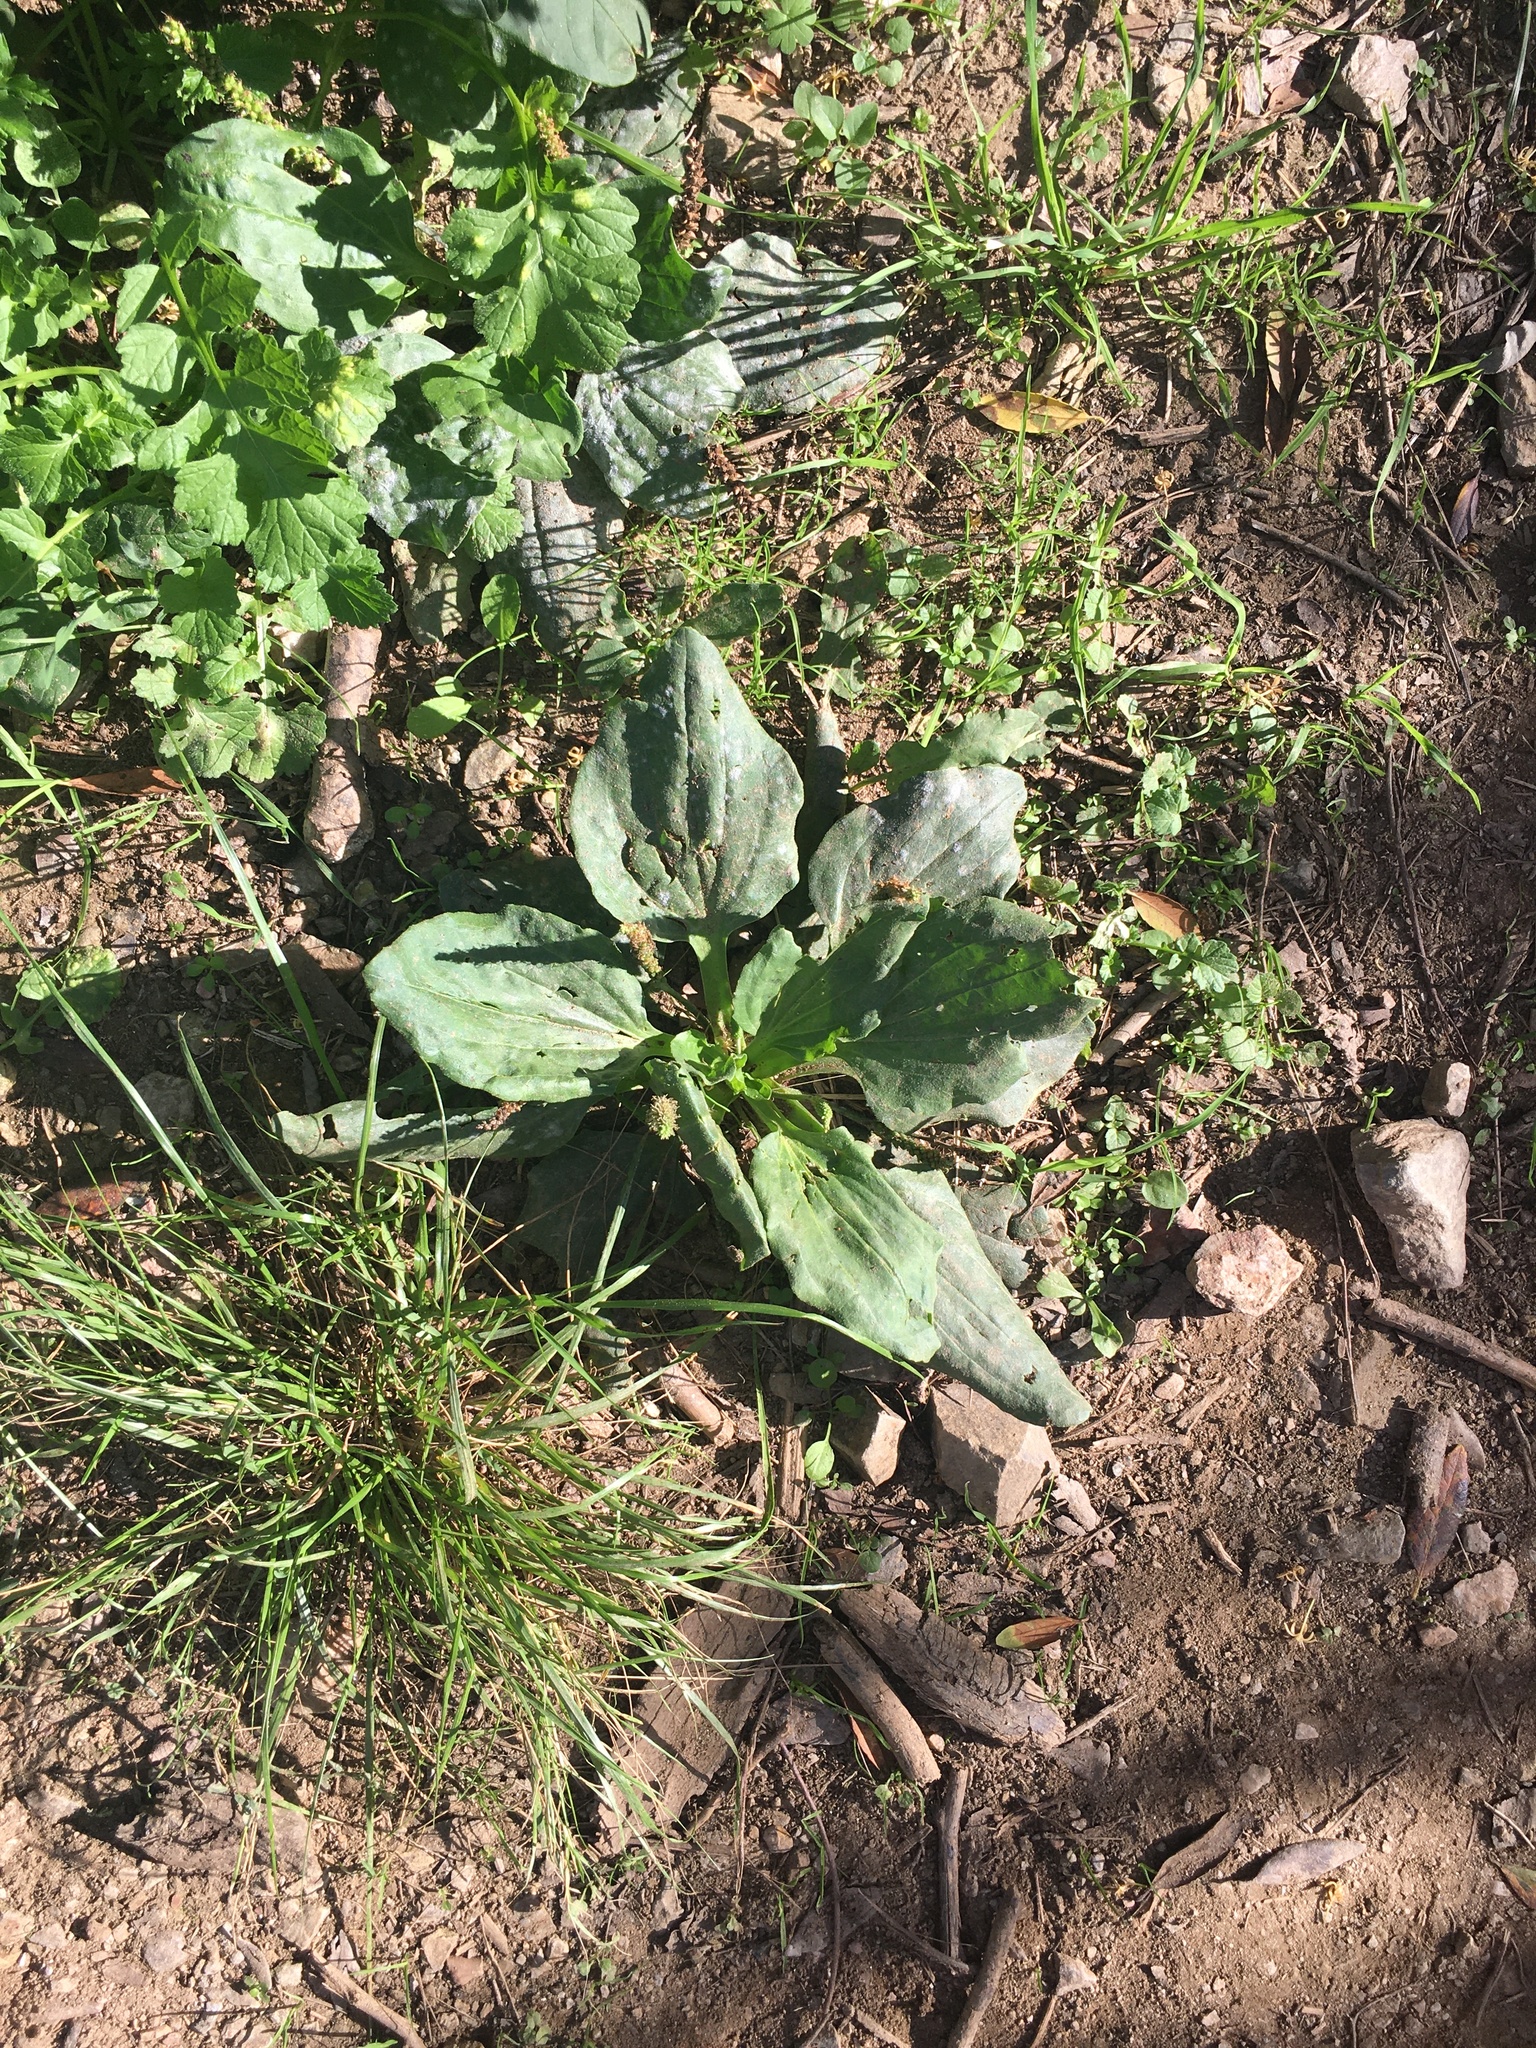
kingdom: Plantae
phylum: Tracheophyta
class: Magnoliopsida
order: Lamiales
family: Plantaginaceae
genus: Plantago
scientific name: Plantago major
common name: Common plantain
